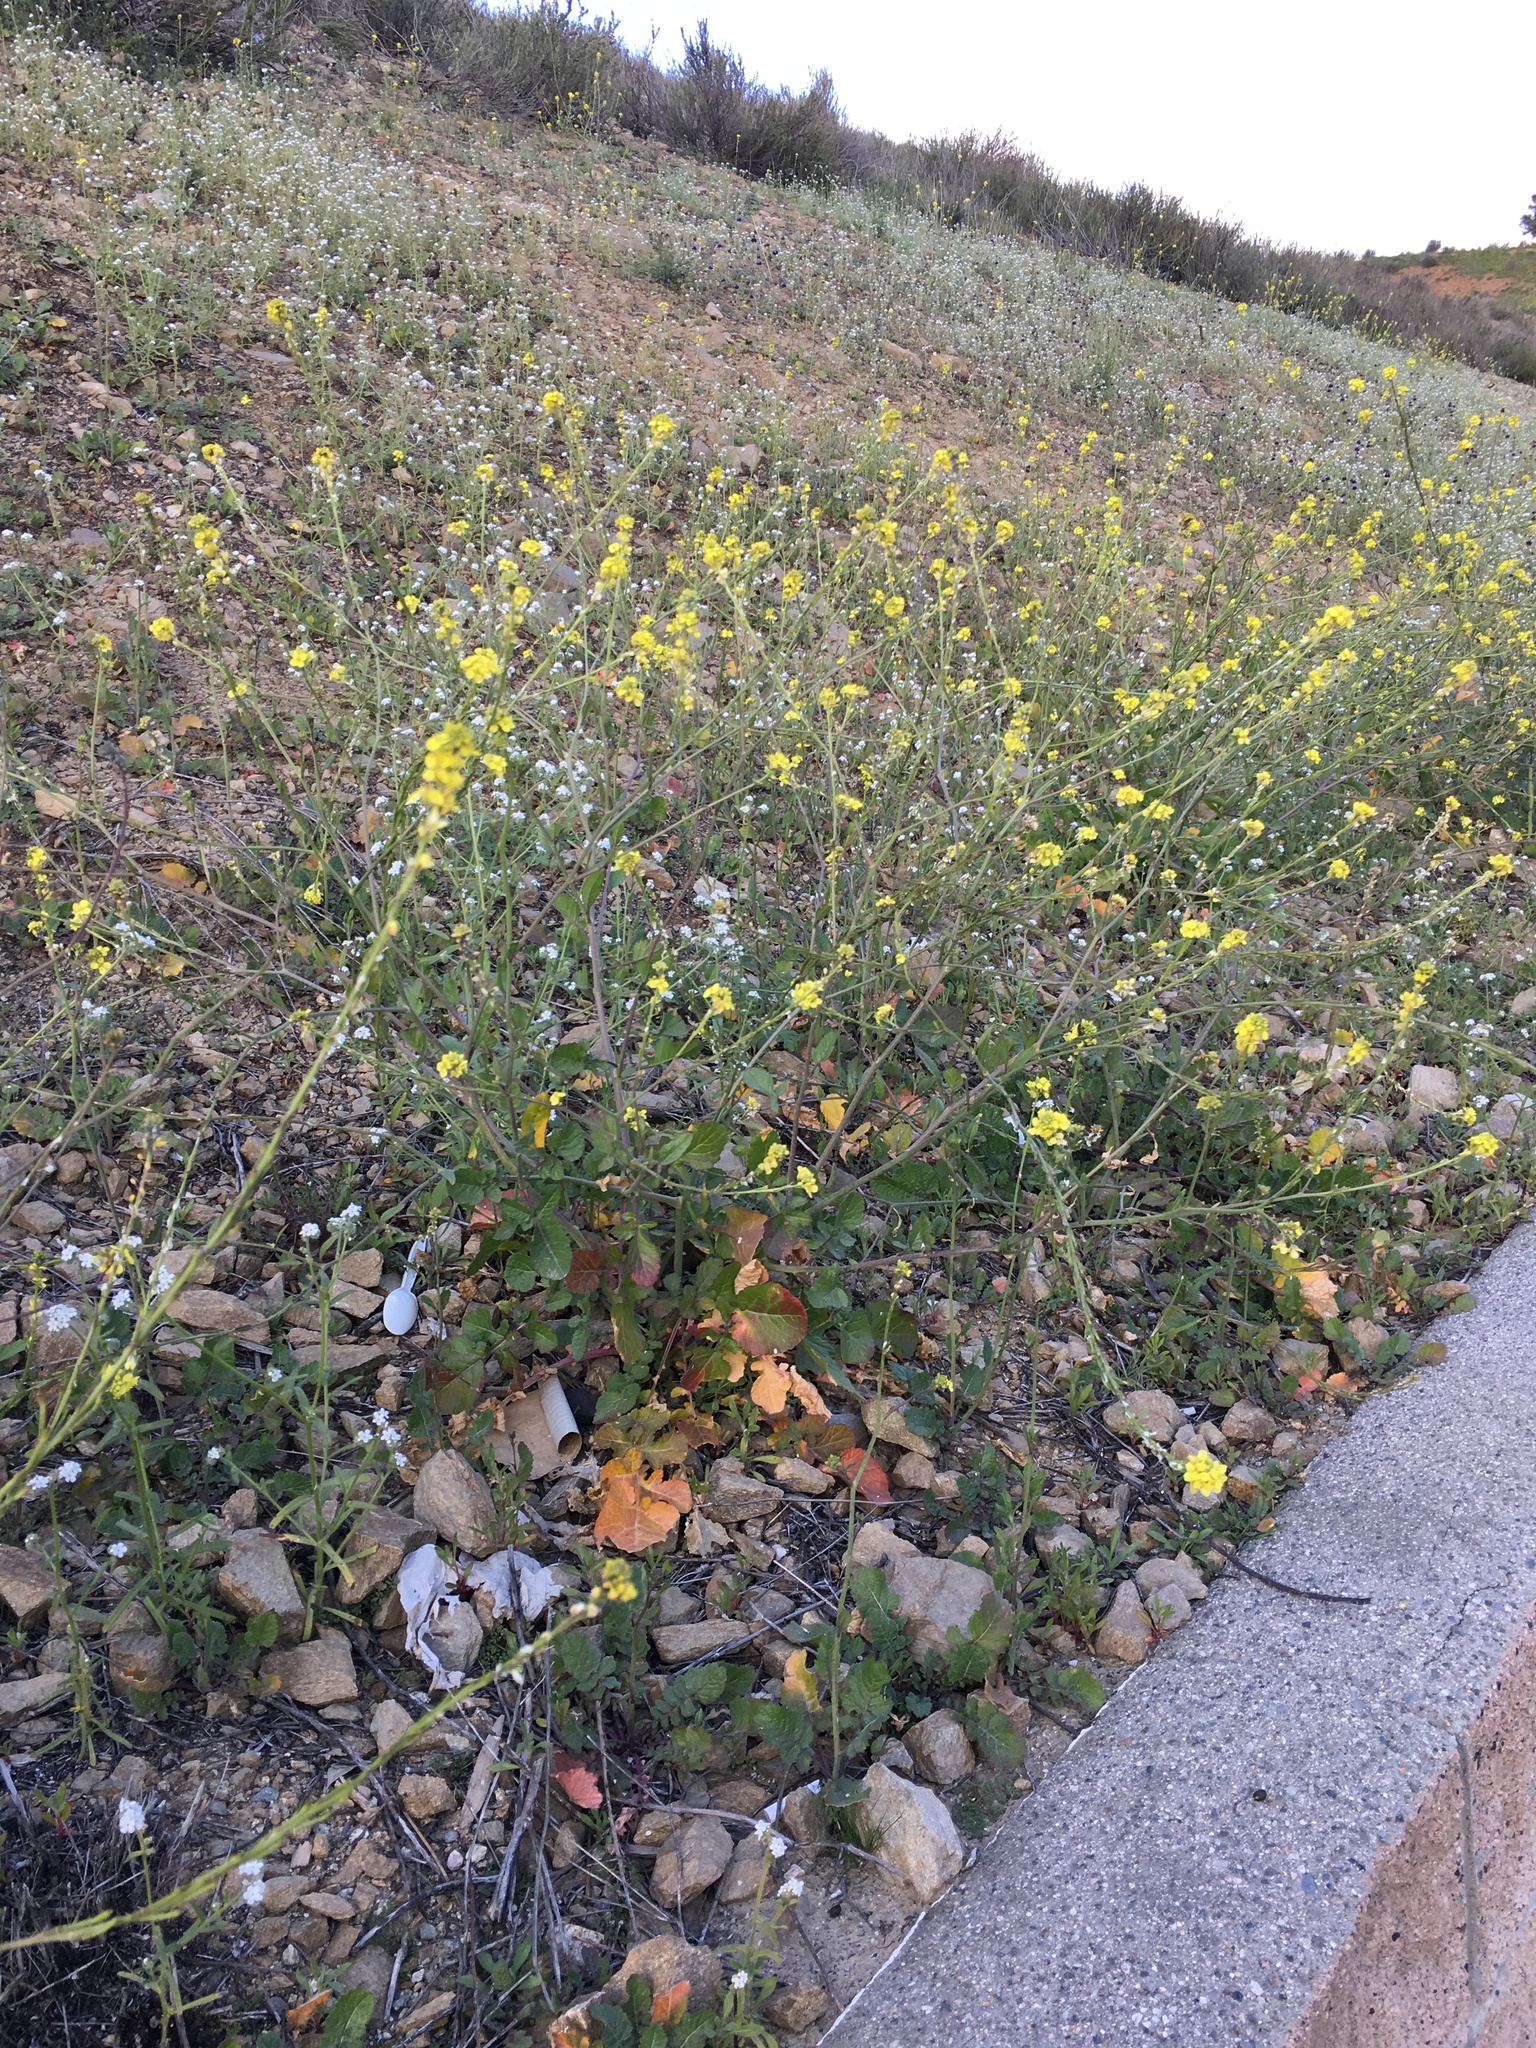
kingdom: Plantae
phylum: Tracheophyta
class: Magnoliopsida
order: Brassicales
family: Brassicaceae
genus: Hirschfeldia
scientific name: Hirschfeldia incana
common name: Hoary mustard
